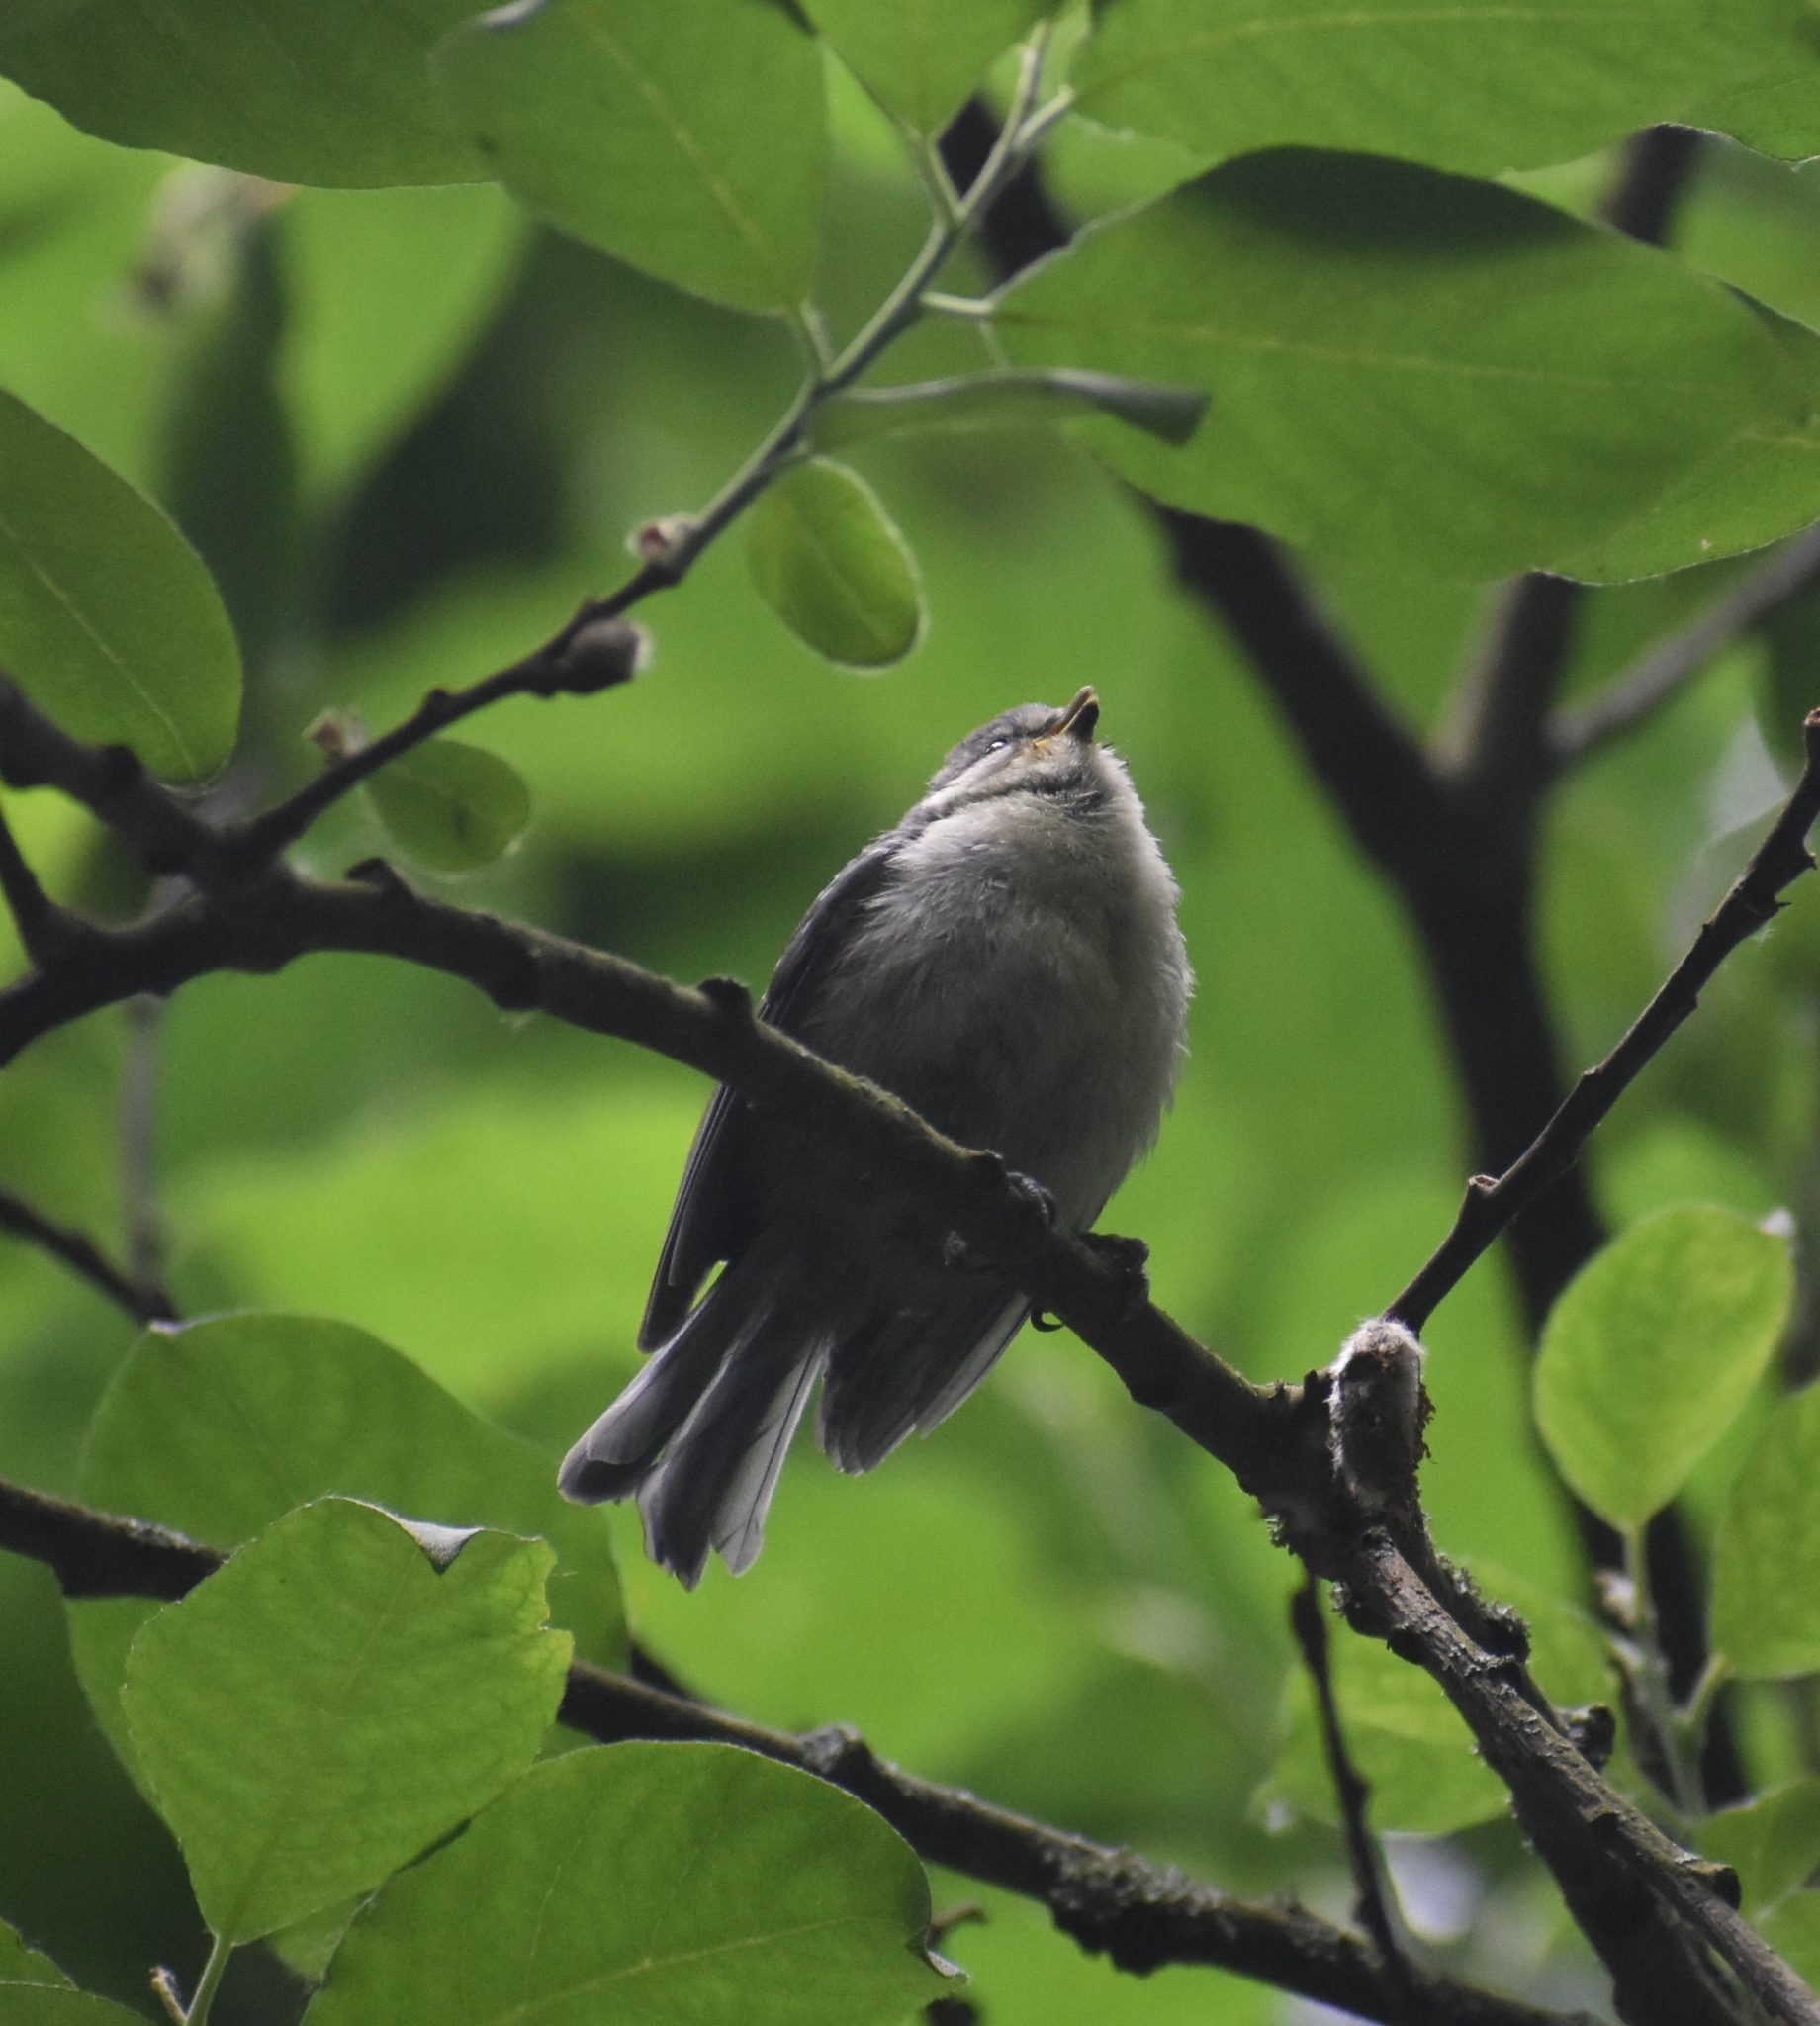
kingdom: Animalia
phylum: Chordata
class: Aves
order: Passeriformes
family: Paridae
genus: Cyanistes
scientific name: Cyanistes caeruleus
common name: Eurasian blue tit
